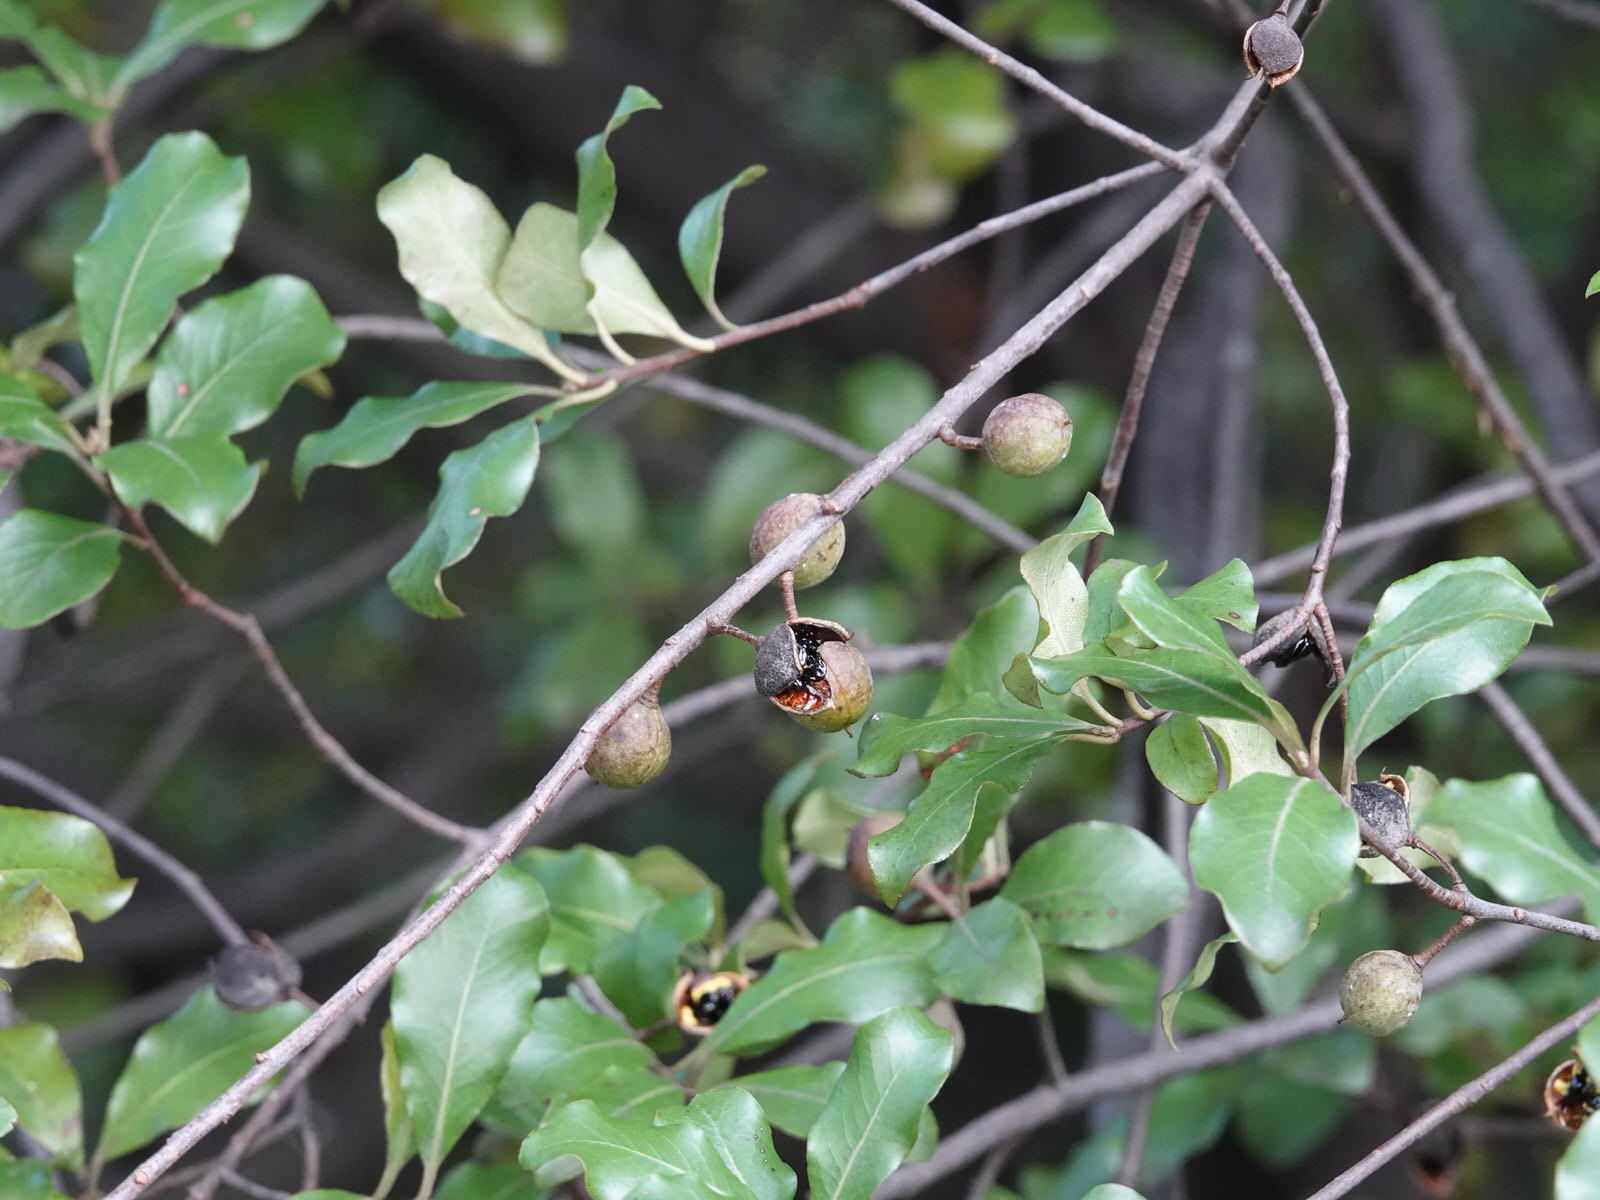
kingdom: Plantae
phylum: Tracheophyta
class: Magnoliopsida
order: Apiales
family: Pittosporaceae
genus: Pittosporum
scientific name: Pittosporum tenuifolium
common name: Kohuhu
